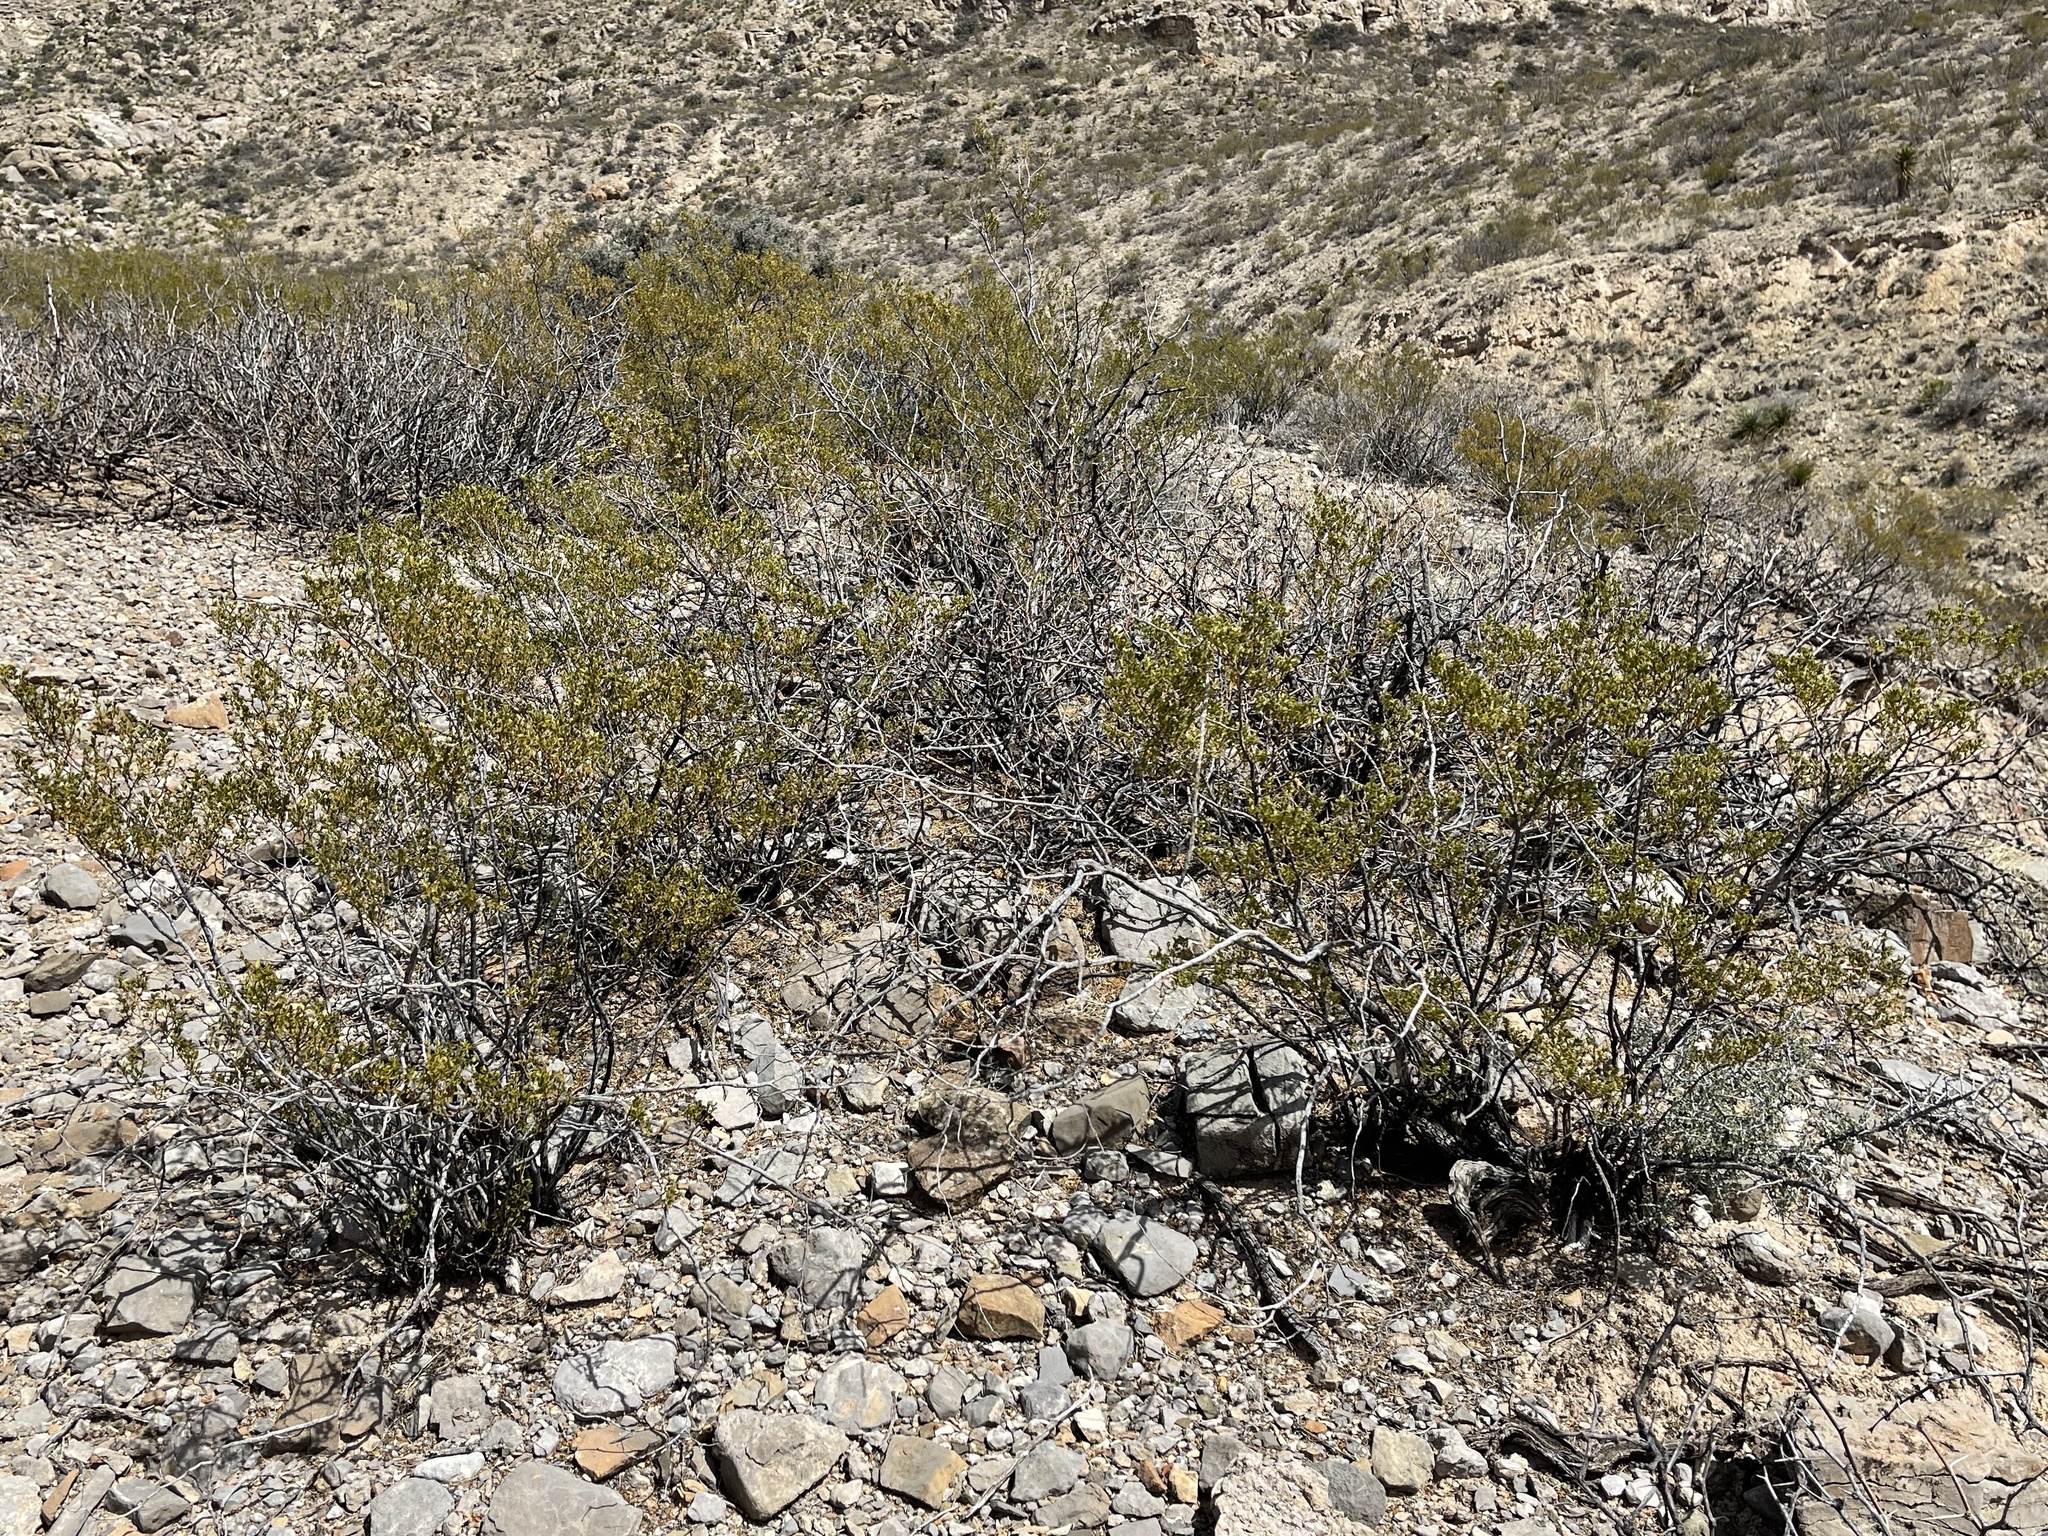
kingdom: Plantae
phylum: Tracheophyta
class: Magnoliopsida
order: Zygophyllales
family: Zygophyllaceae
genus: Larrea
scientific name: Larrea tridentata
